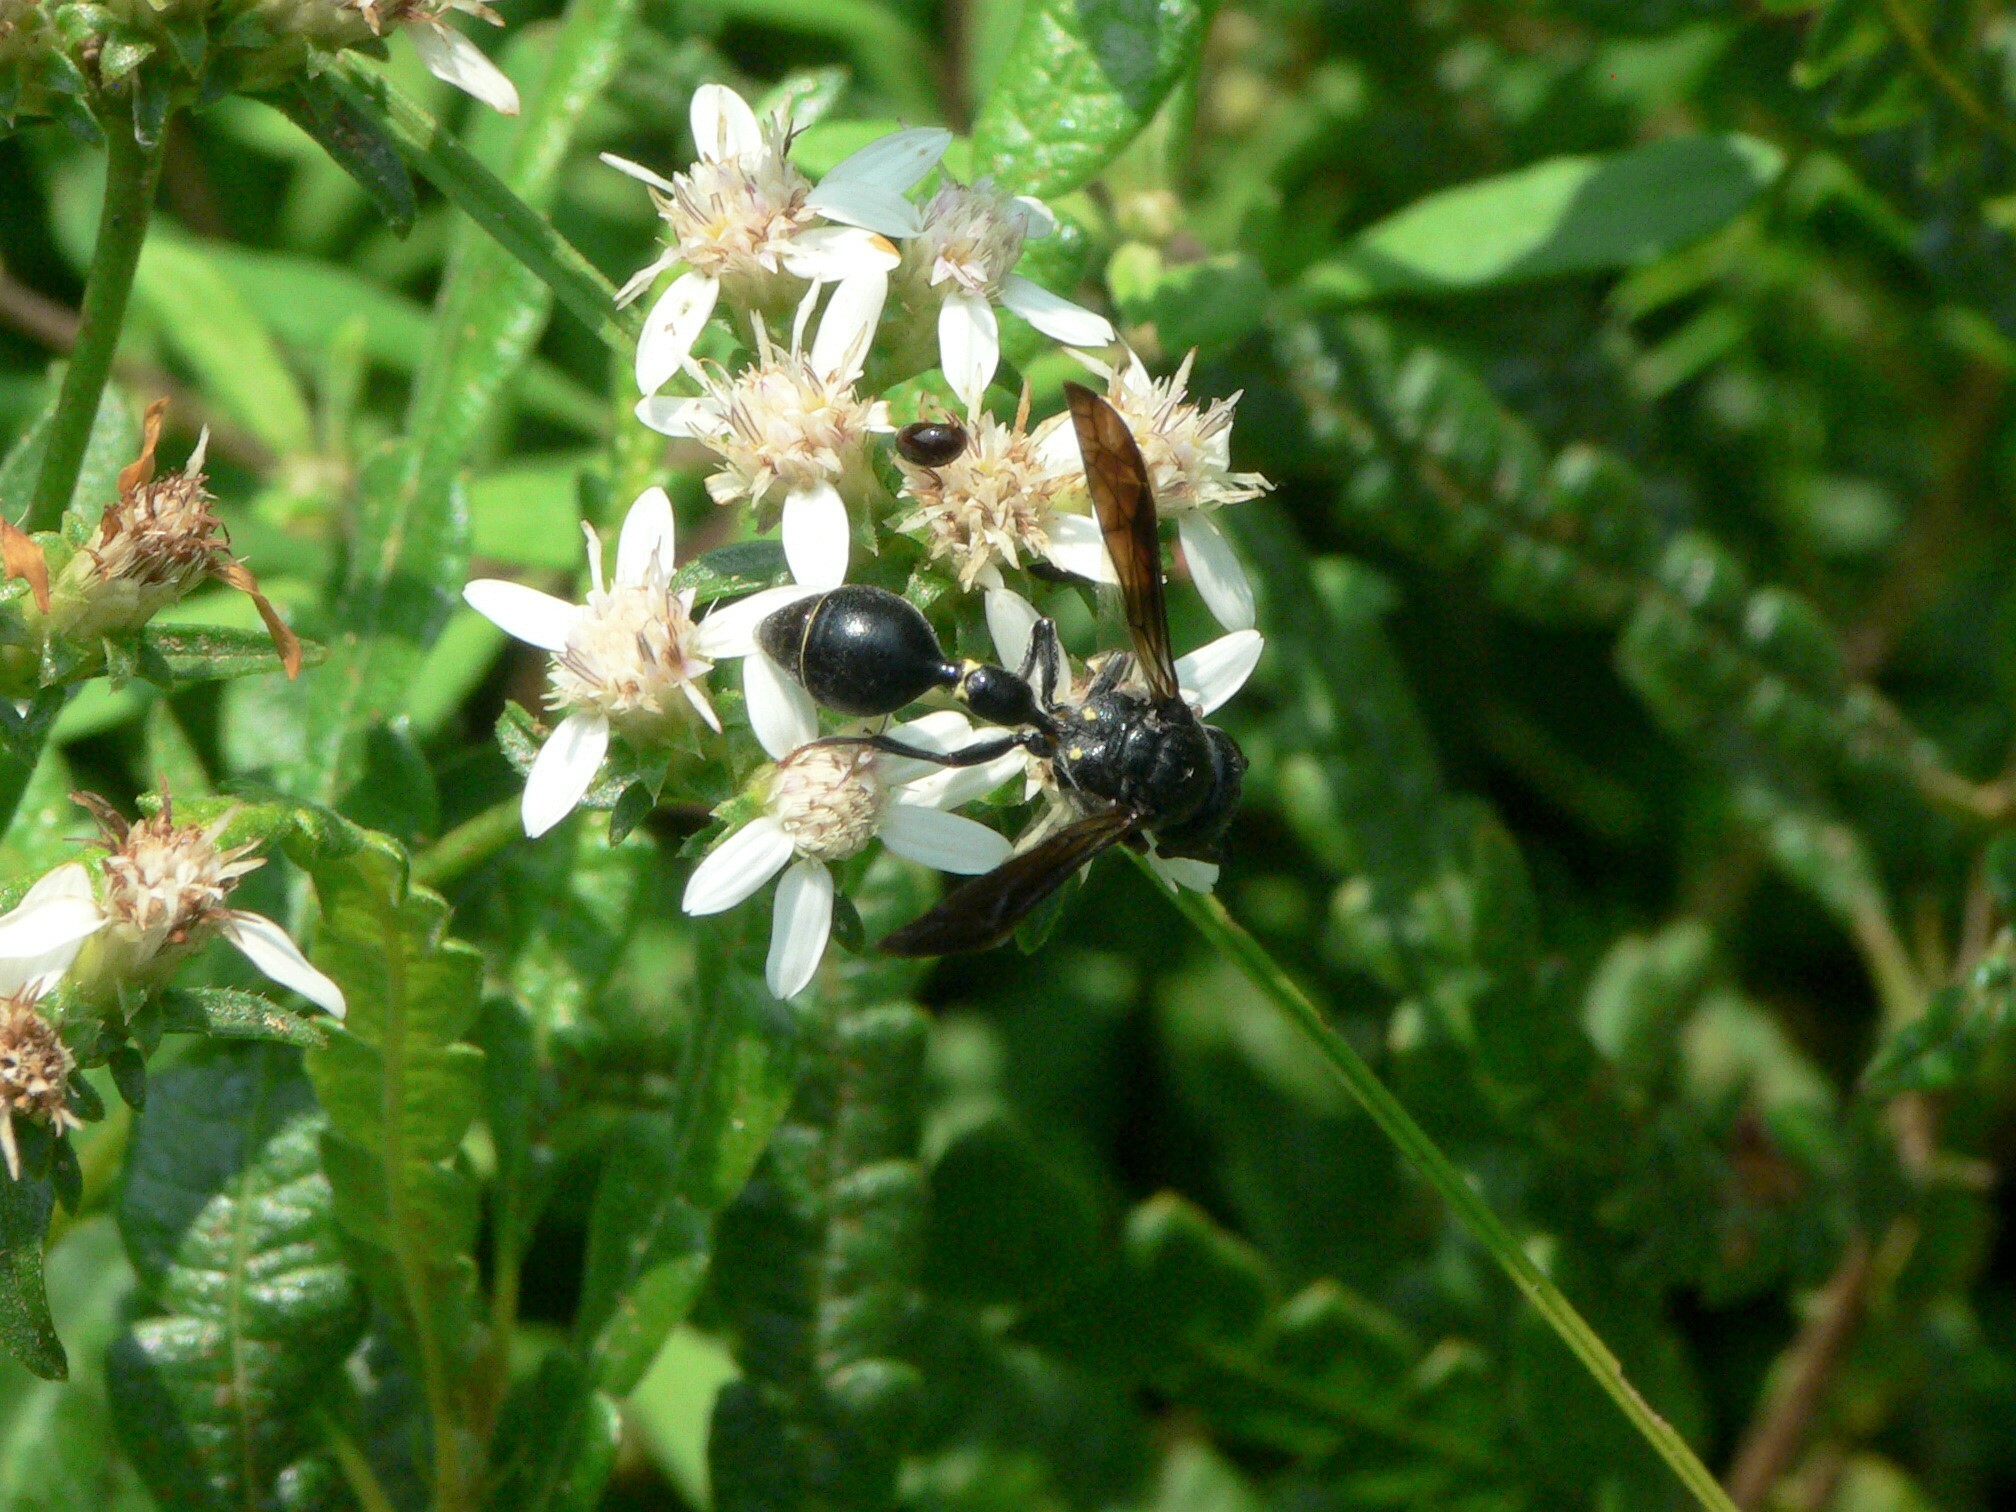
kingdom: Animalia
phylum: Arthropoda
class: Insecta
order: Hymenoptera
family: Eumenidae
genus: Zethus
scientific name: Zethus spinipes
